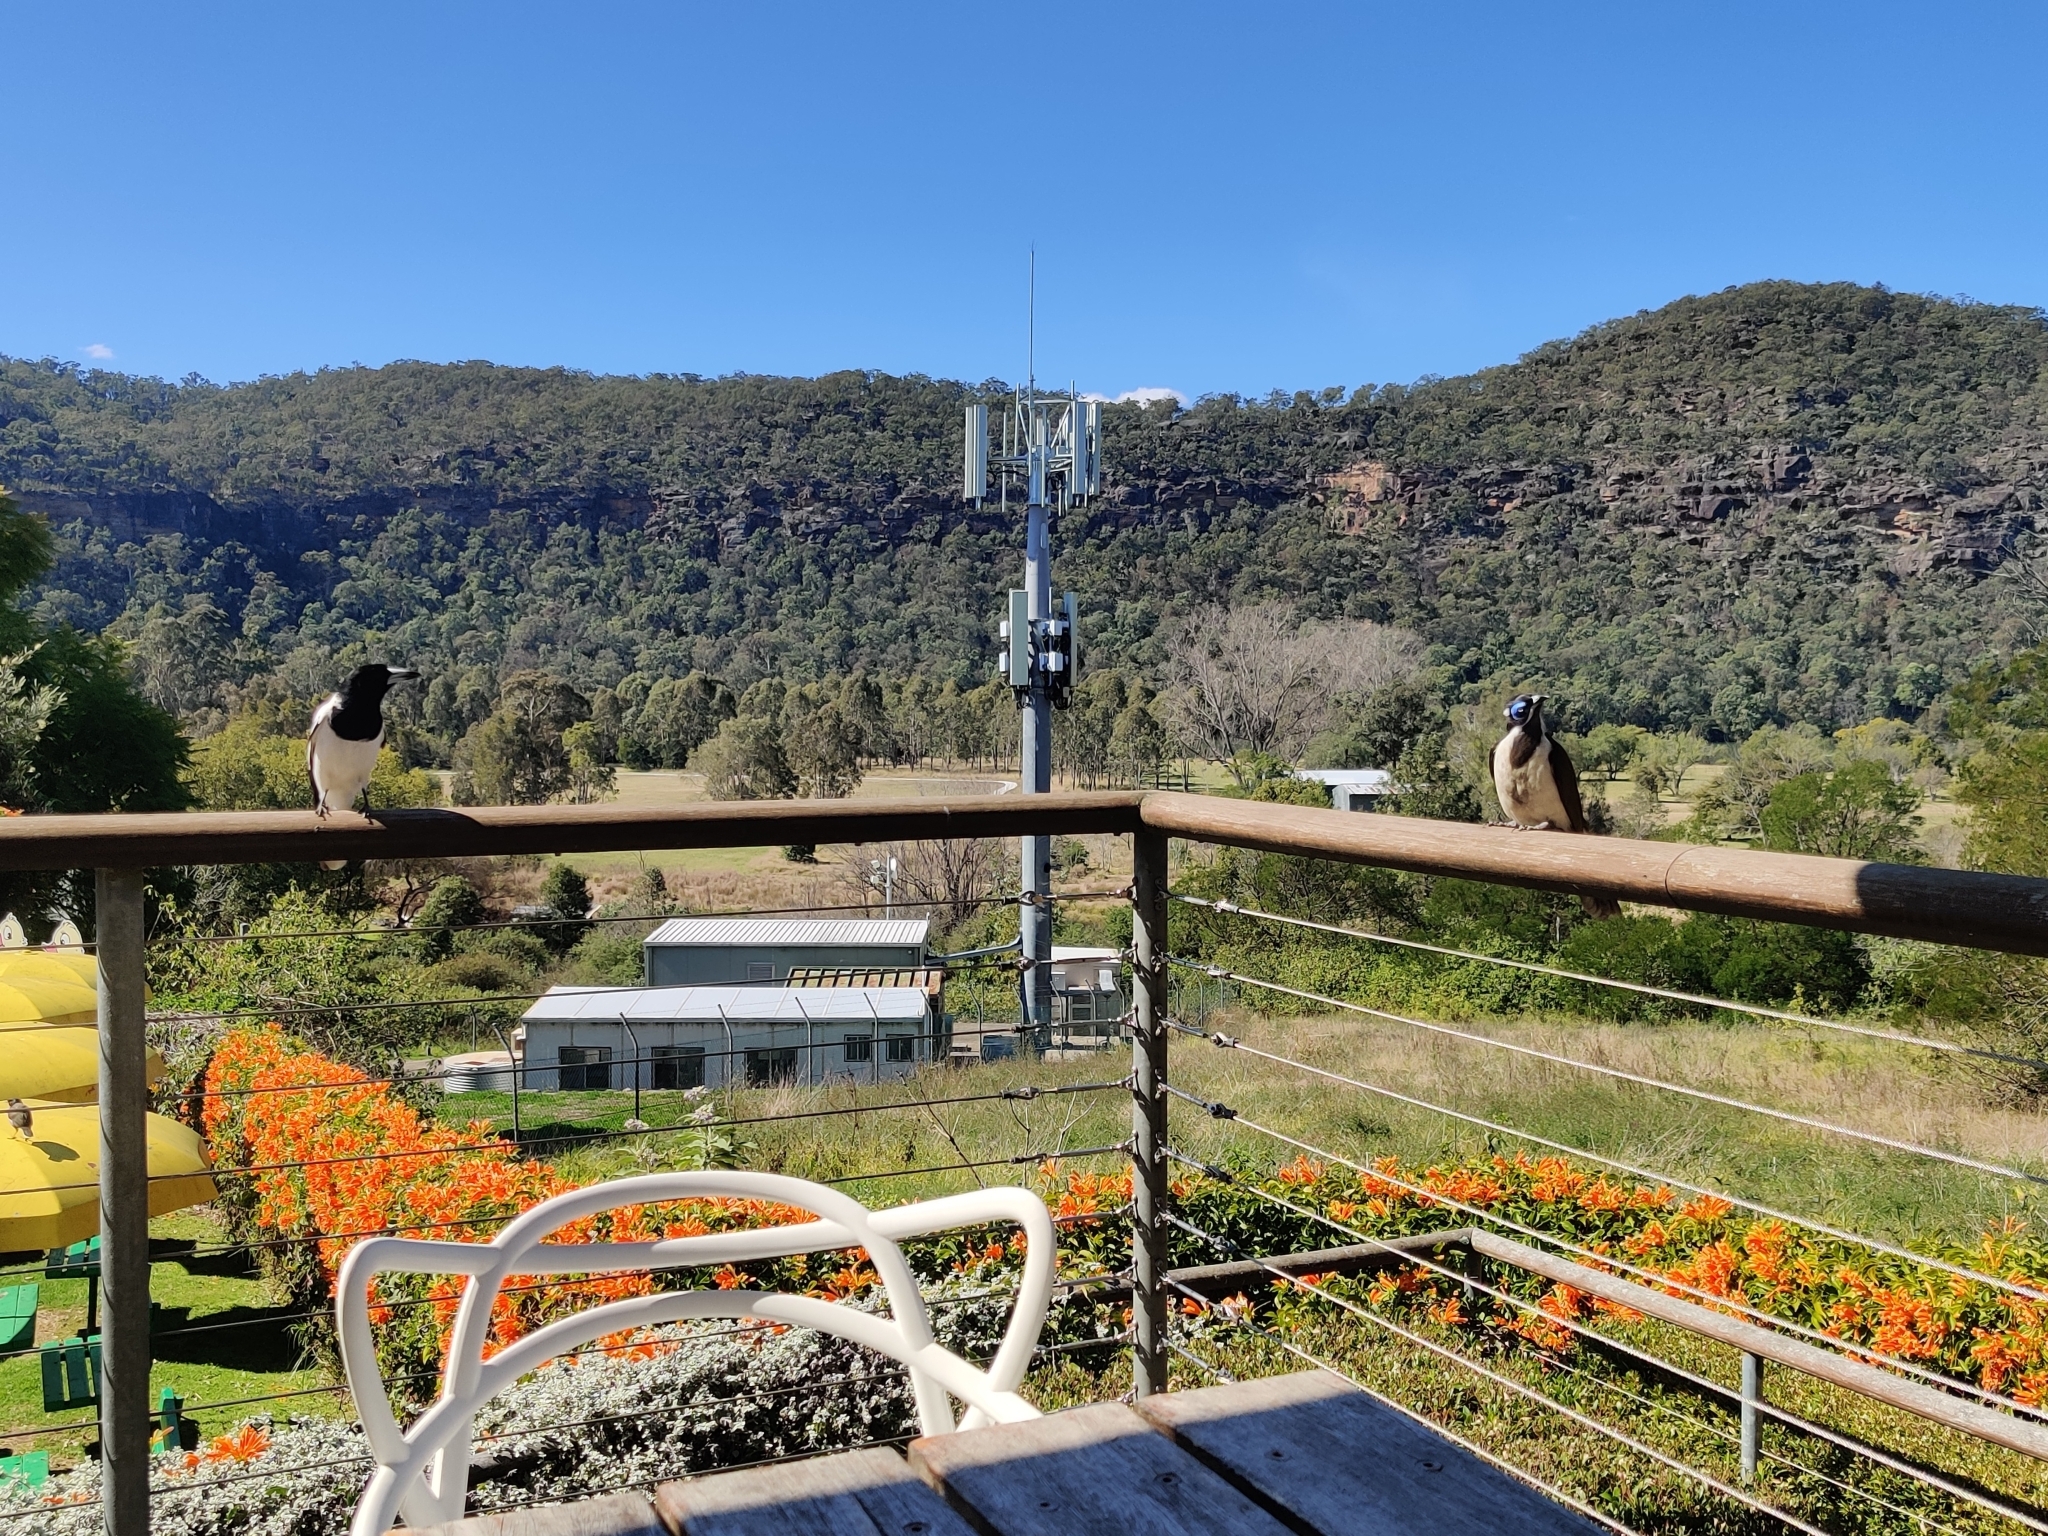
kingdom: Animalia
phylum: Chordata
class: Aves
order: Passeriformes
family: Meliphagidae
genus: Entomyzon
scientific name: Entomyzon cyanotis
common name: Blue-faced honeyeater
